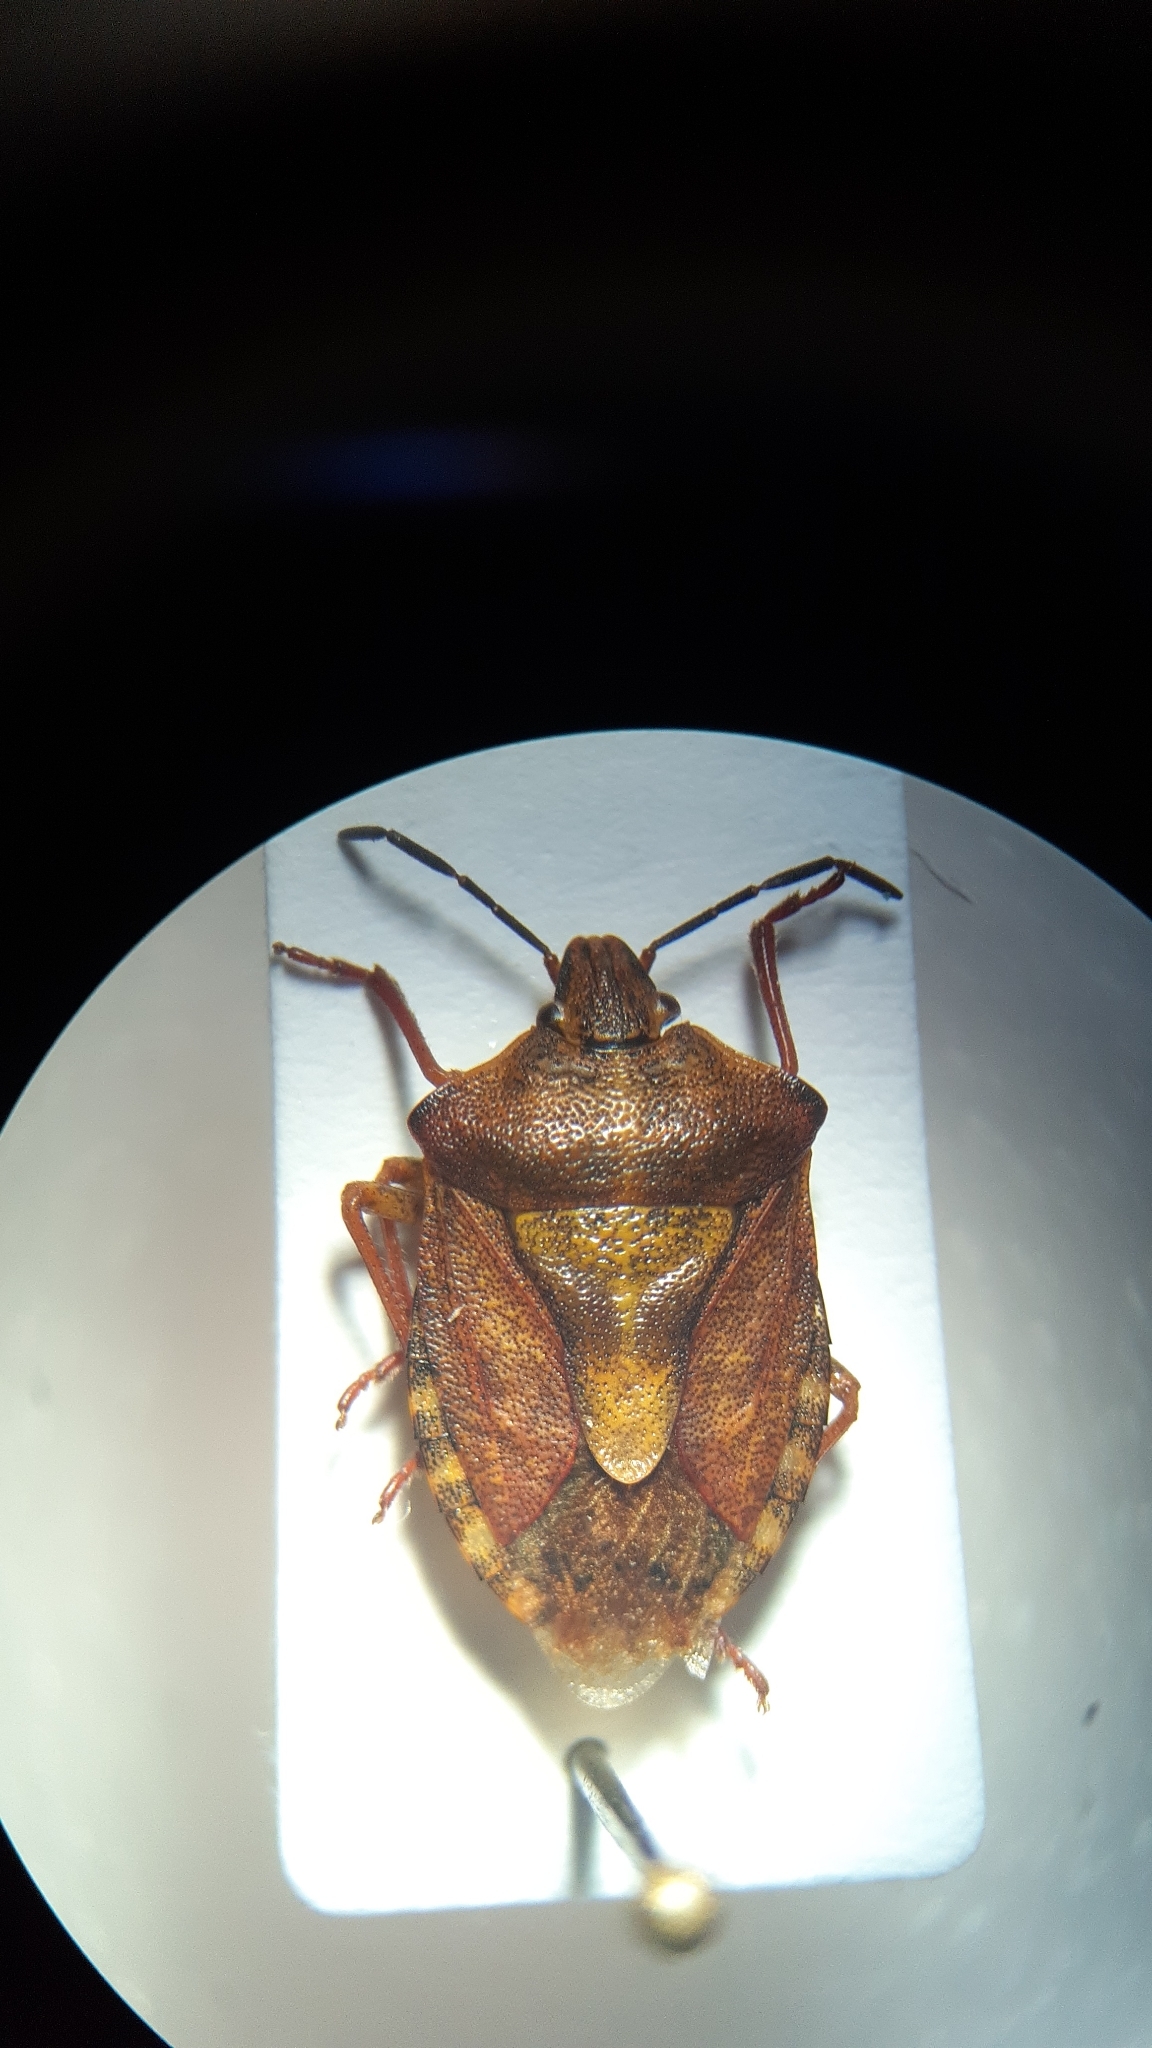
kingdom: Animalia
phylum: Arthropoda
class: Insecta
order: Hemiptera
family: Pentatomidae
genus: Carpocoris
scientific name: Carpocoris purpureipennis
